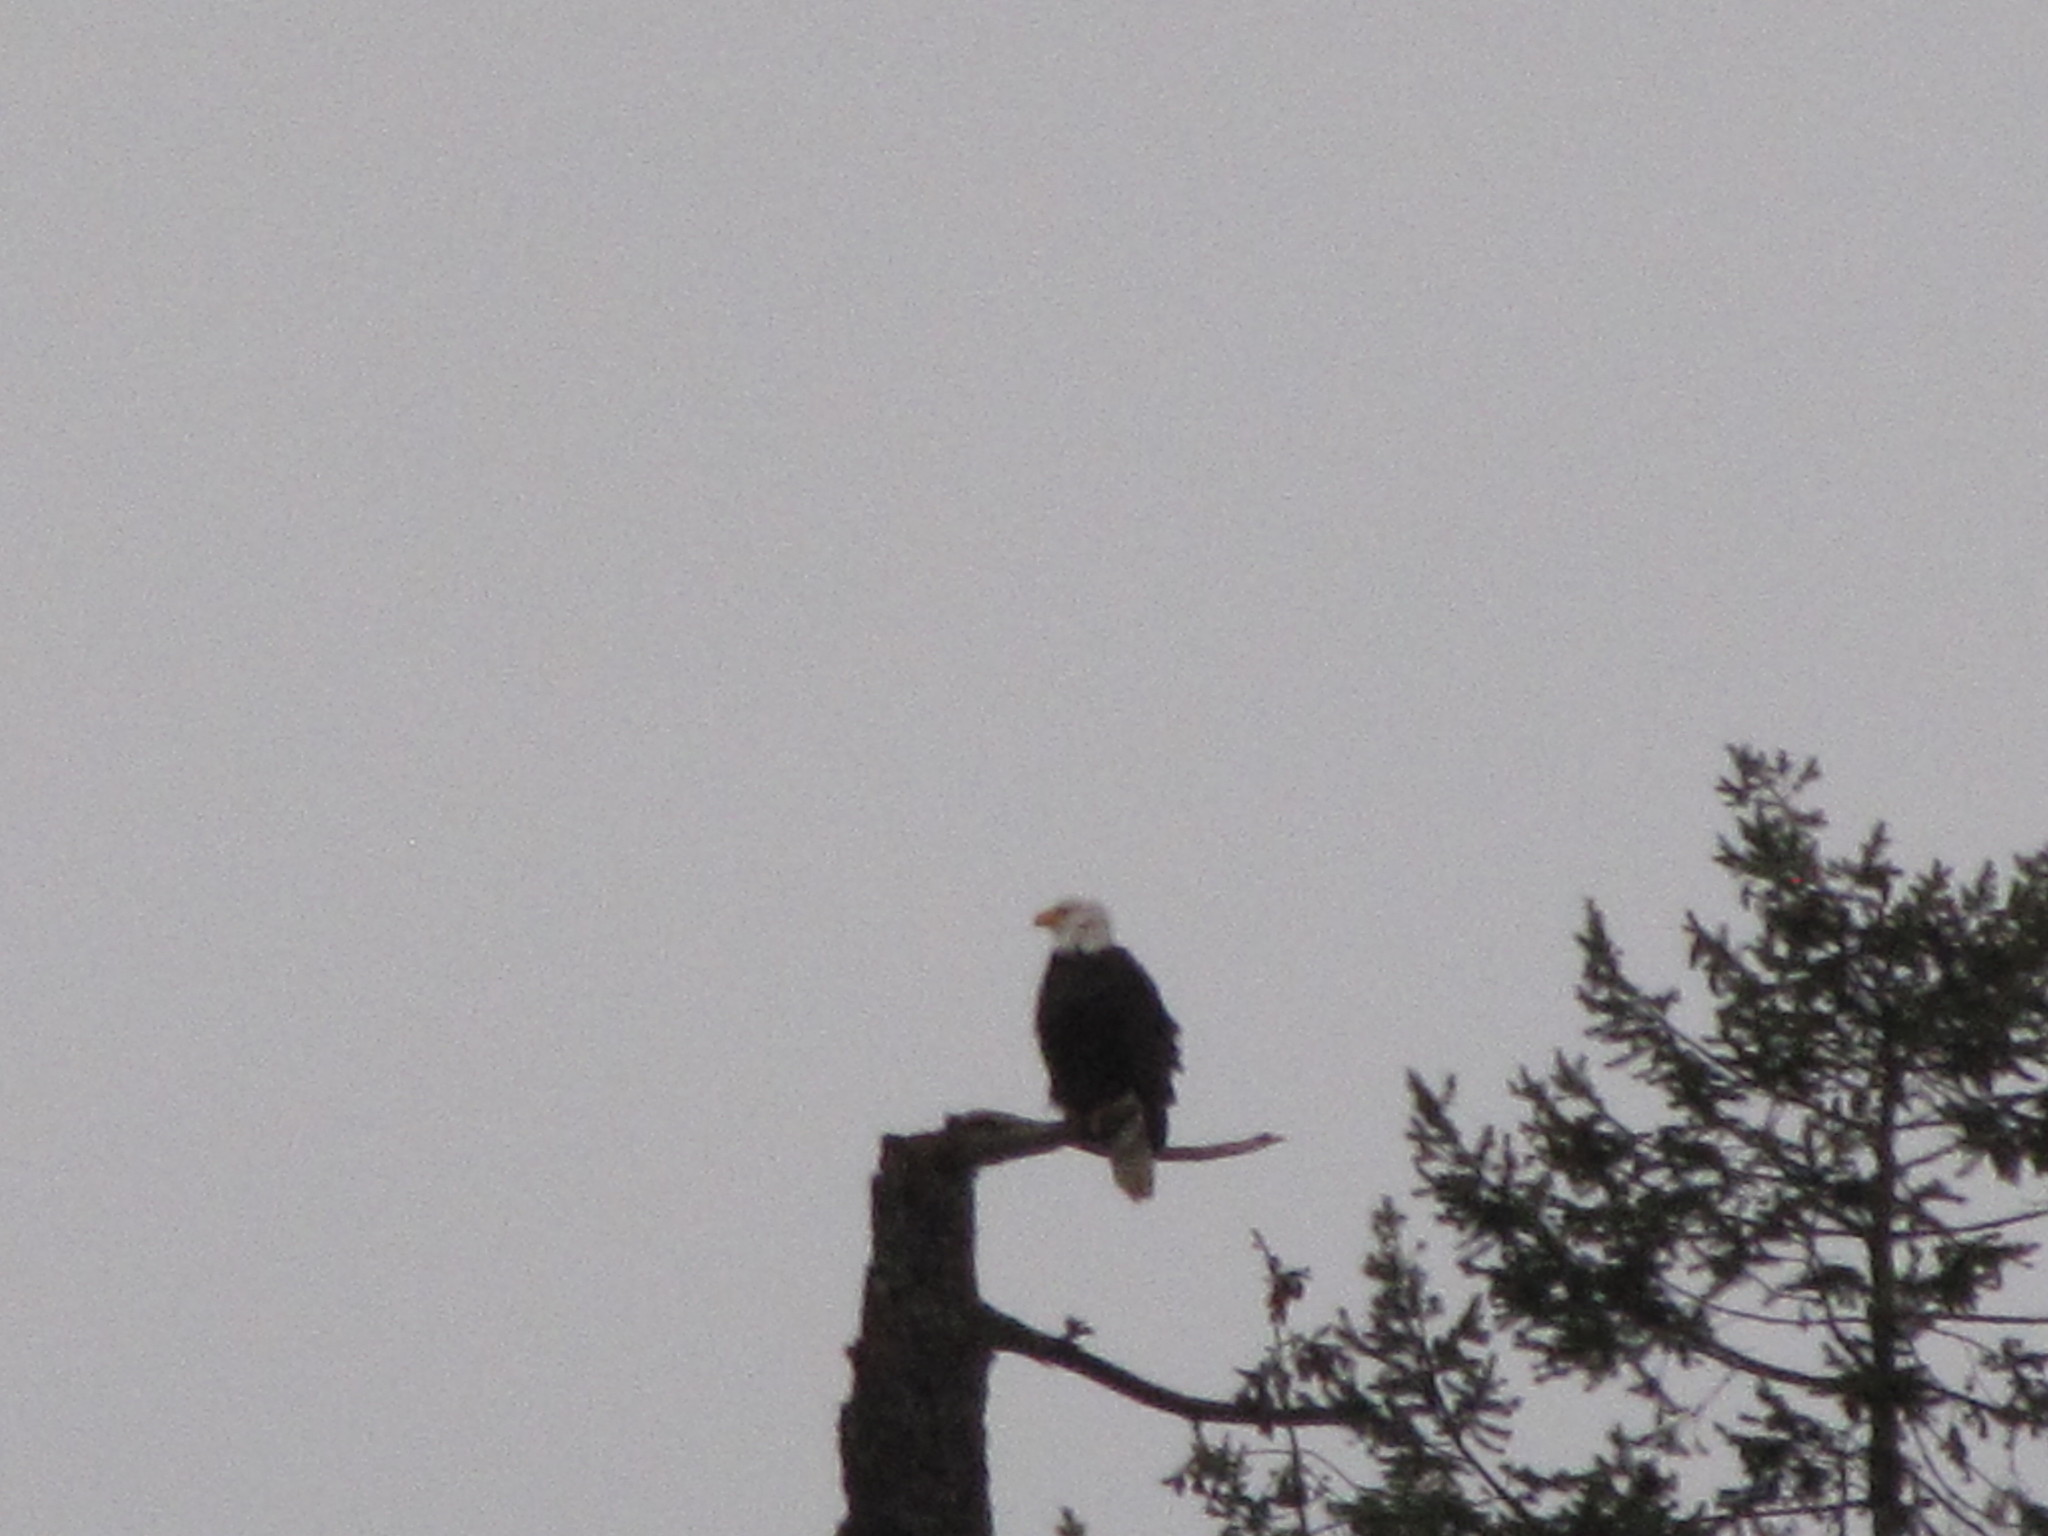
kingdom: Animalia
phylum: Chordata
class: Aves
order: Accipitriformes
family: Accipitridae
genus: Haliaeetus
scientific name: Haliaeetus leucocephalus
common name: Bald eagle
